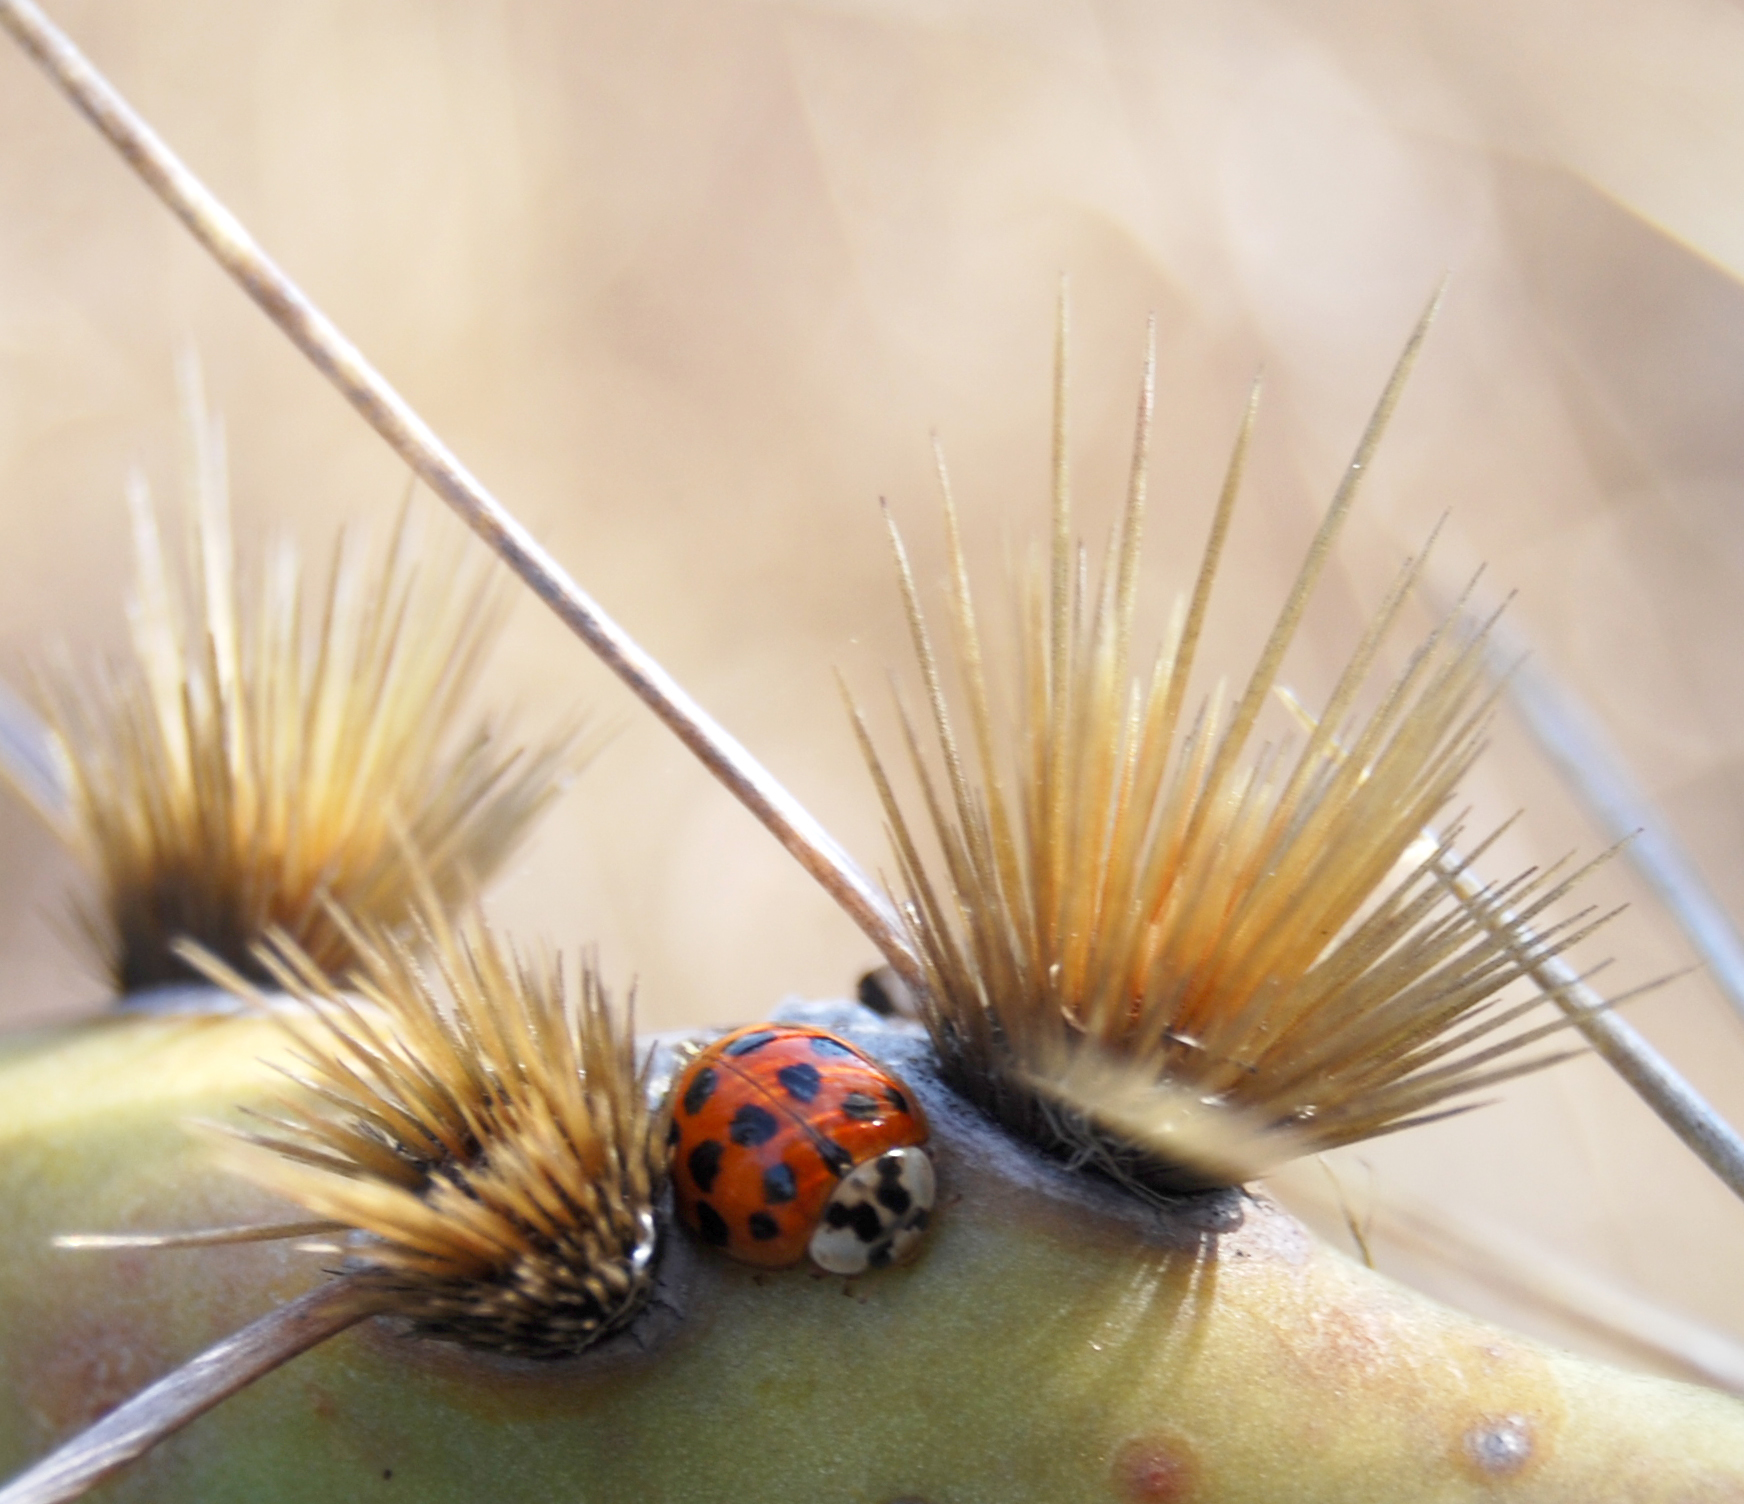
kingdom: Animalia
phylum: Arthropoda
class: Insecta
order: Coleoptera
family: Coccinellidae
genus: Harmonia
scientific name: Harmonia axyridis
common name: Harlequin ladybird
